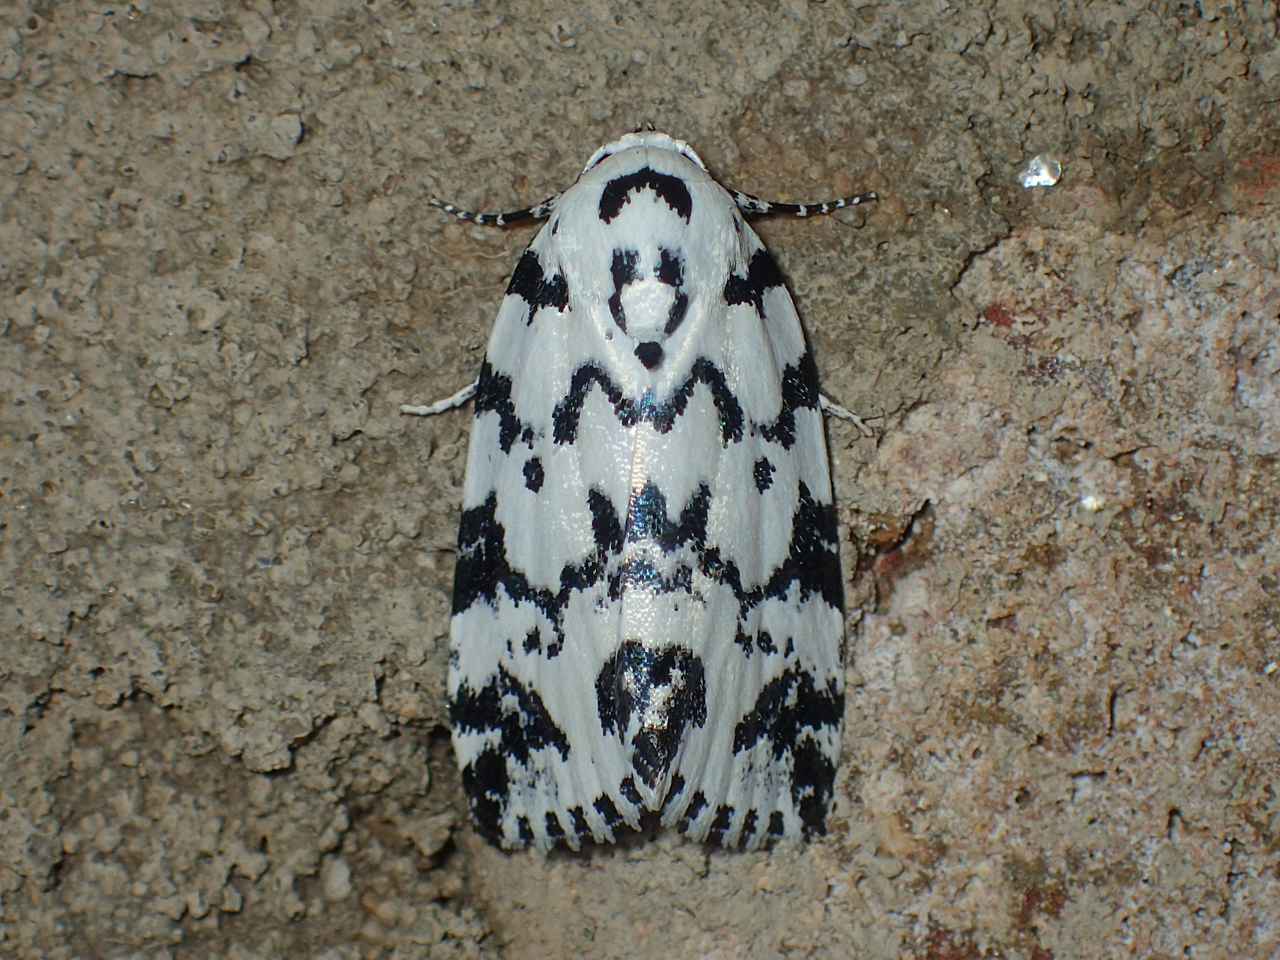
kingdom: Animalia
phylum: Arthropoda
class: Insecta
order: Lepidoptera
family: Noctuidae
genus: Polygrammate
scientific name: Polygrammate hebraeicum
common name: Hebrew moth
